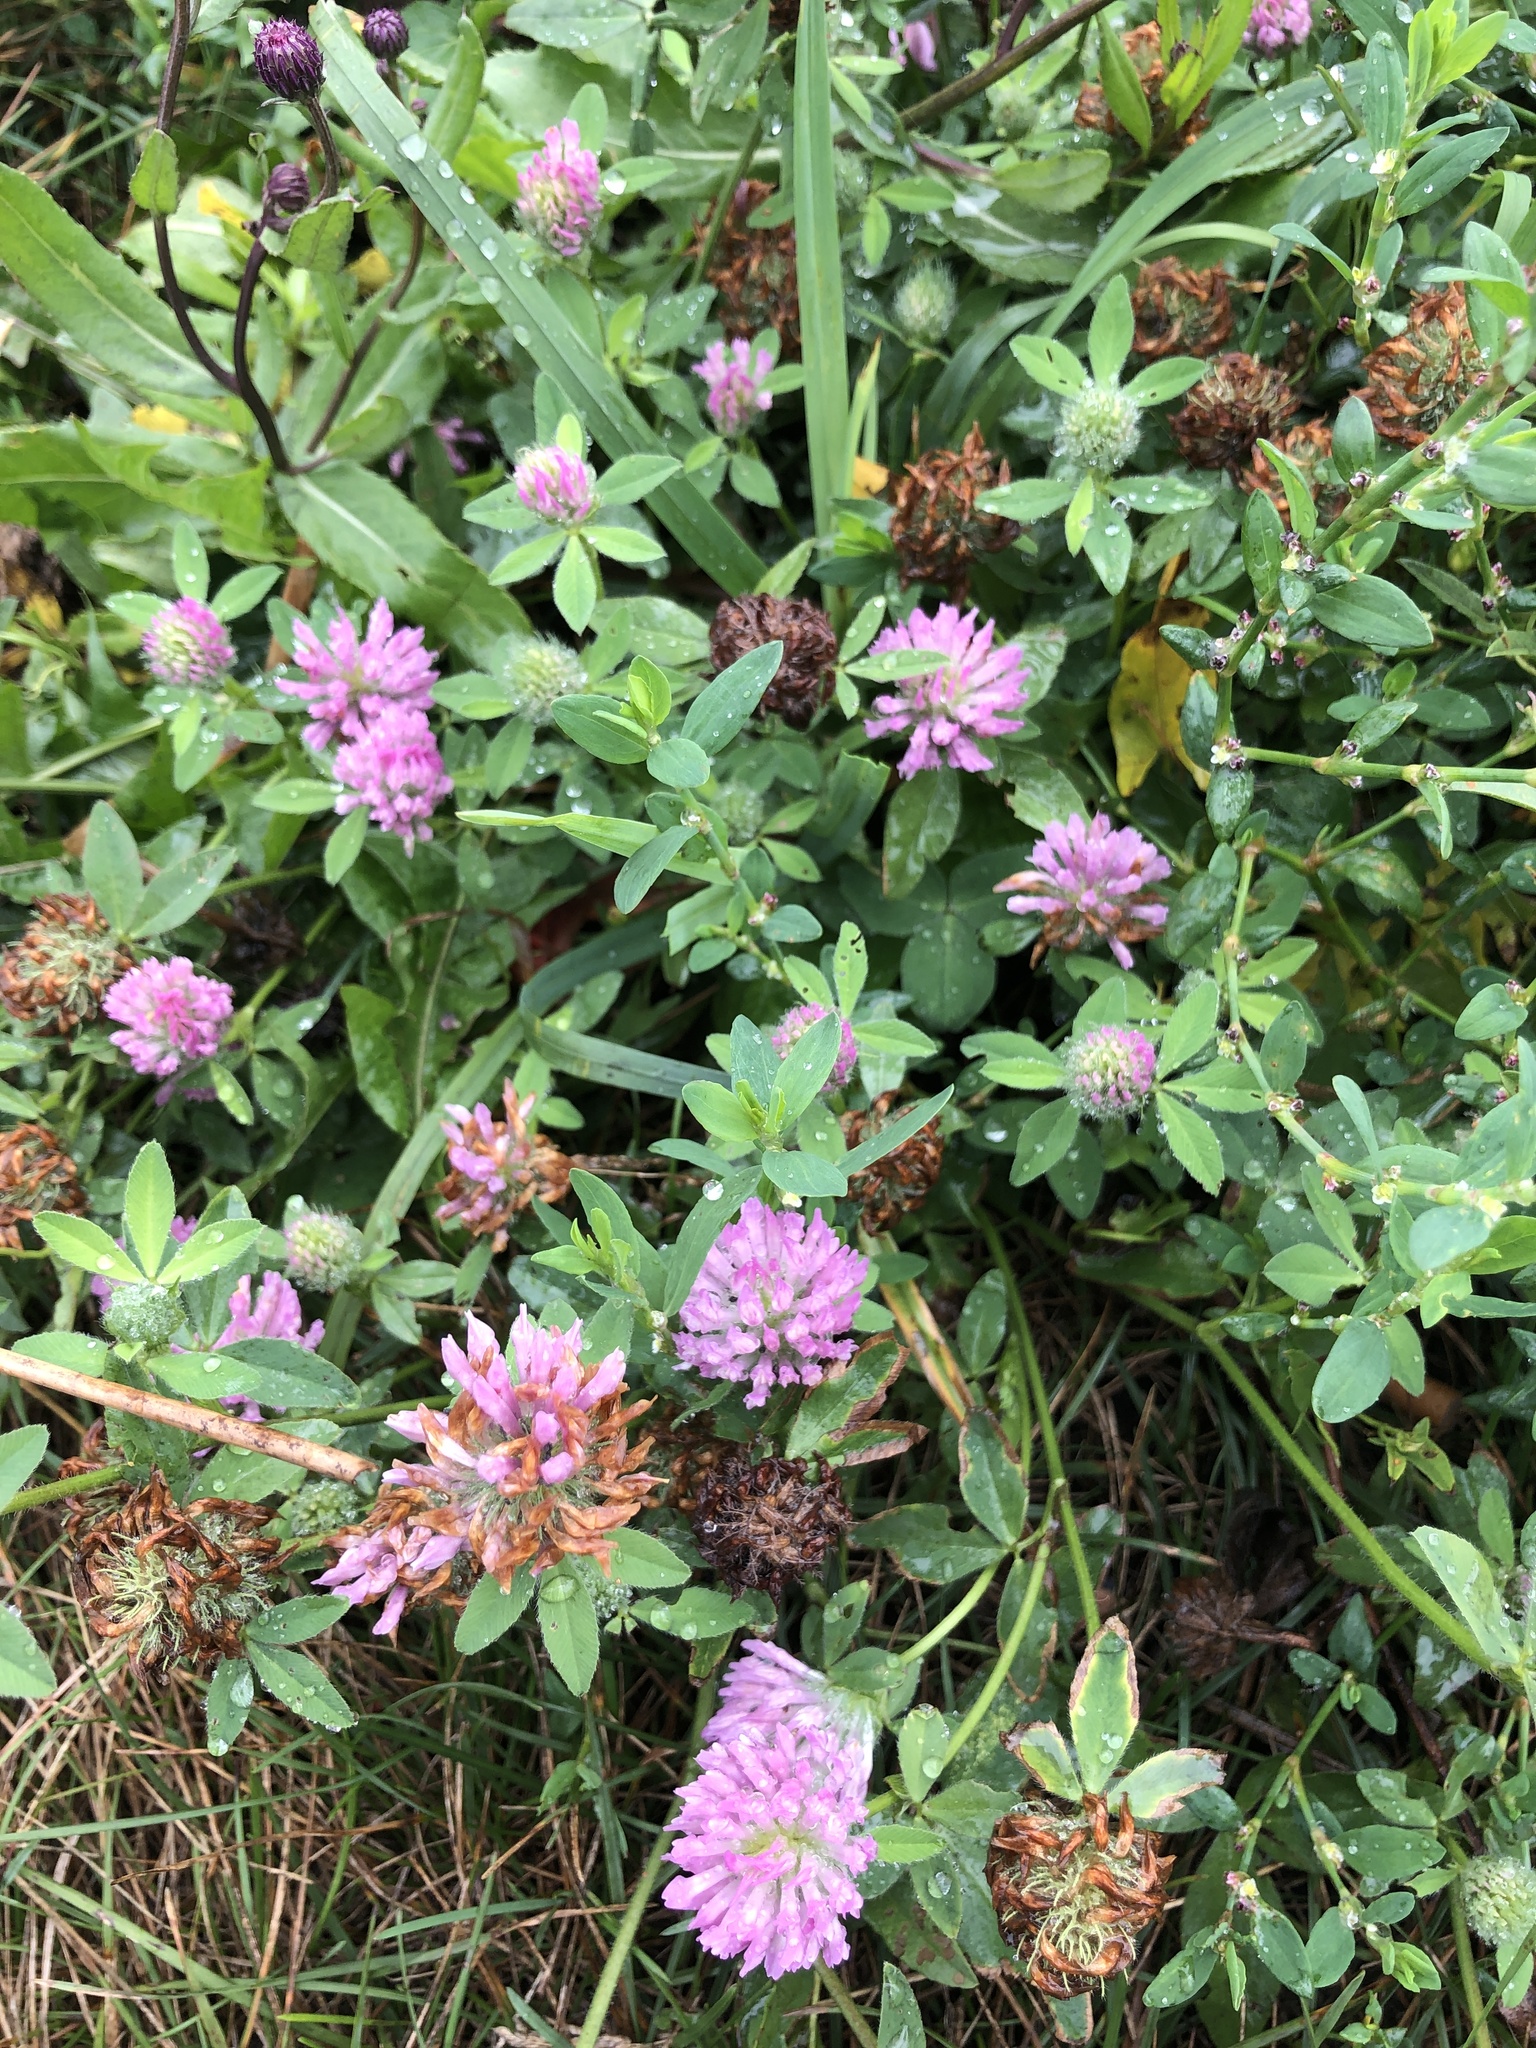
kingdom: Plantae
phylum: Tracheophyta
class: Magnoliopsida
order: Fabales
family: Fabaceae
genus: Trifolium
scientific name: Trifolium pratense
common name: Red clover
